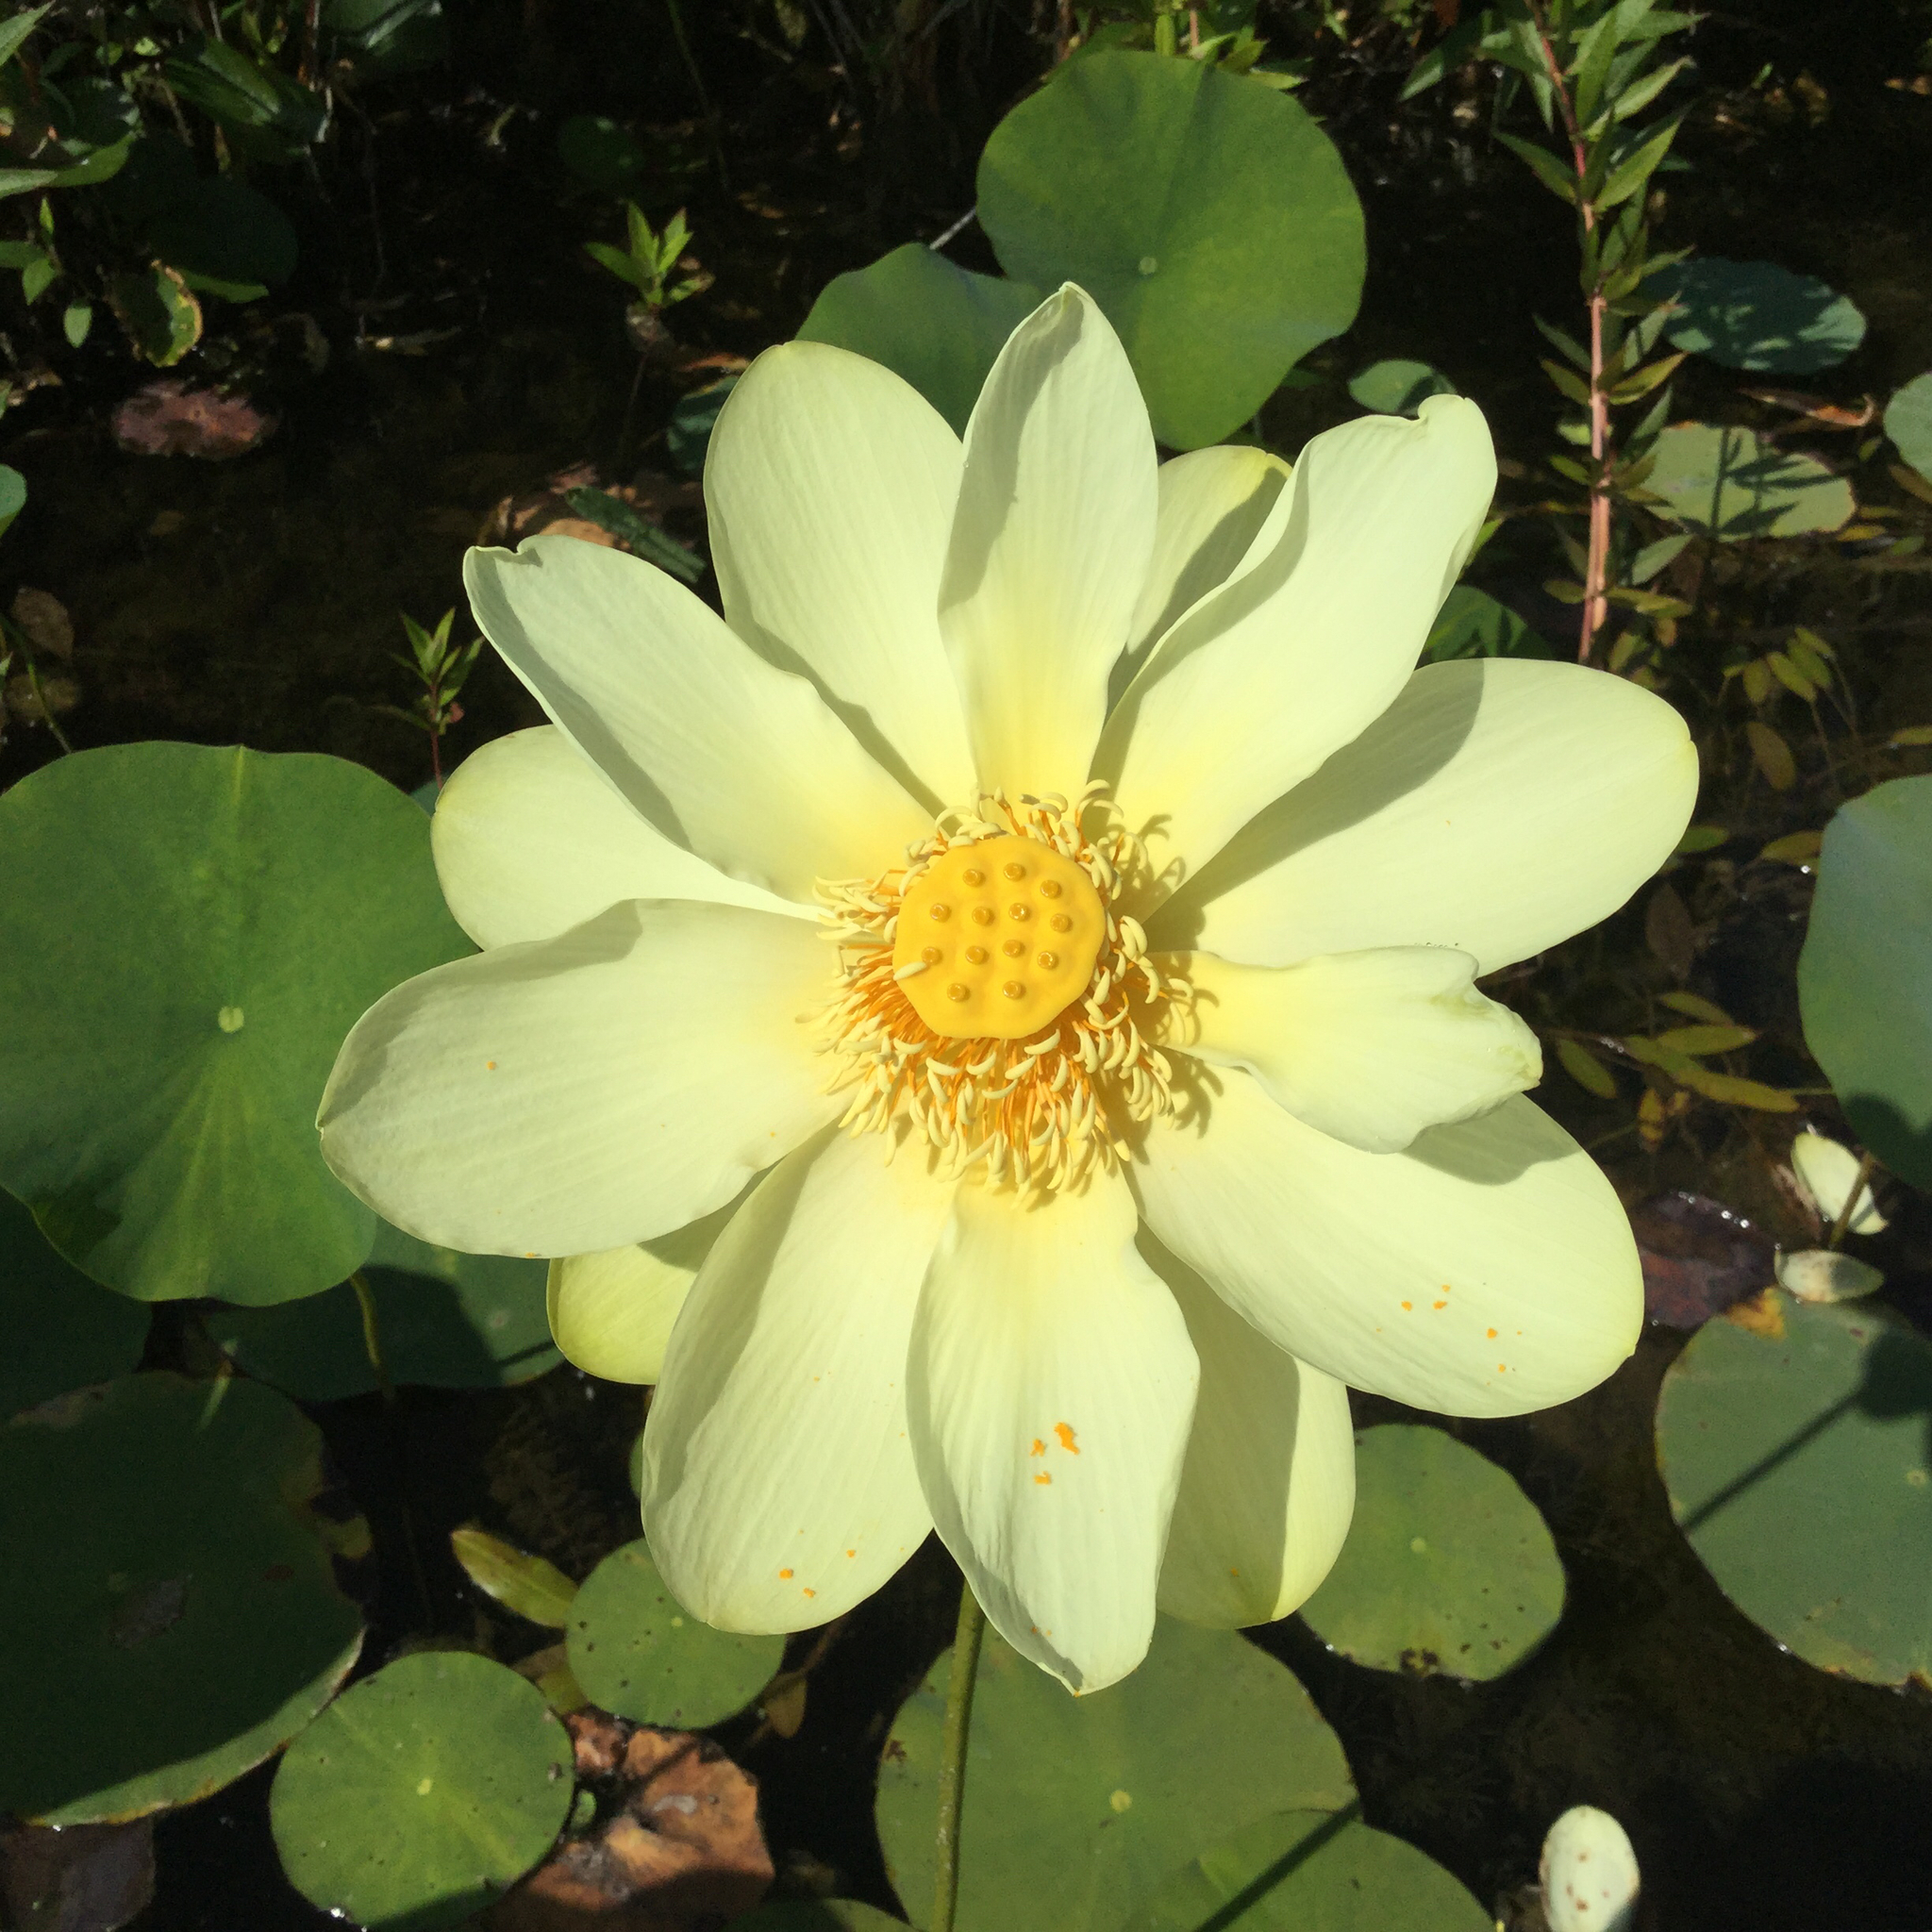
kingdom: Plantae
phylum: Tracheophyta
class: Magnoliopsida
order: Proteales
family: Nelumbonaceae
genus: Nelumbo
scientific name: Nelumbo lutea
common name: American lotus
